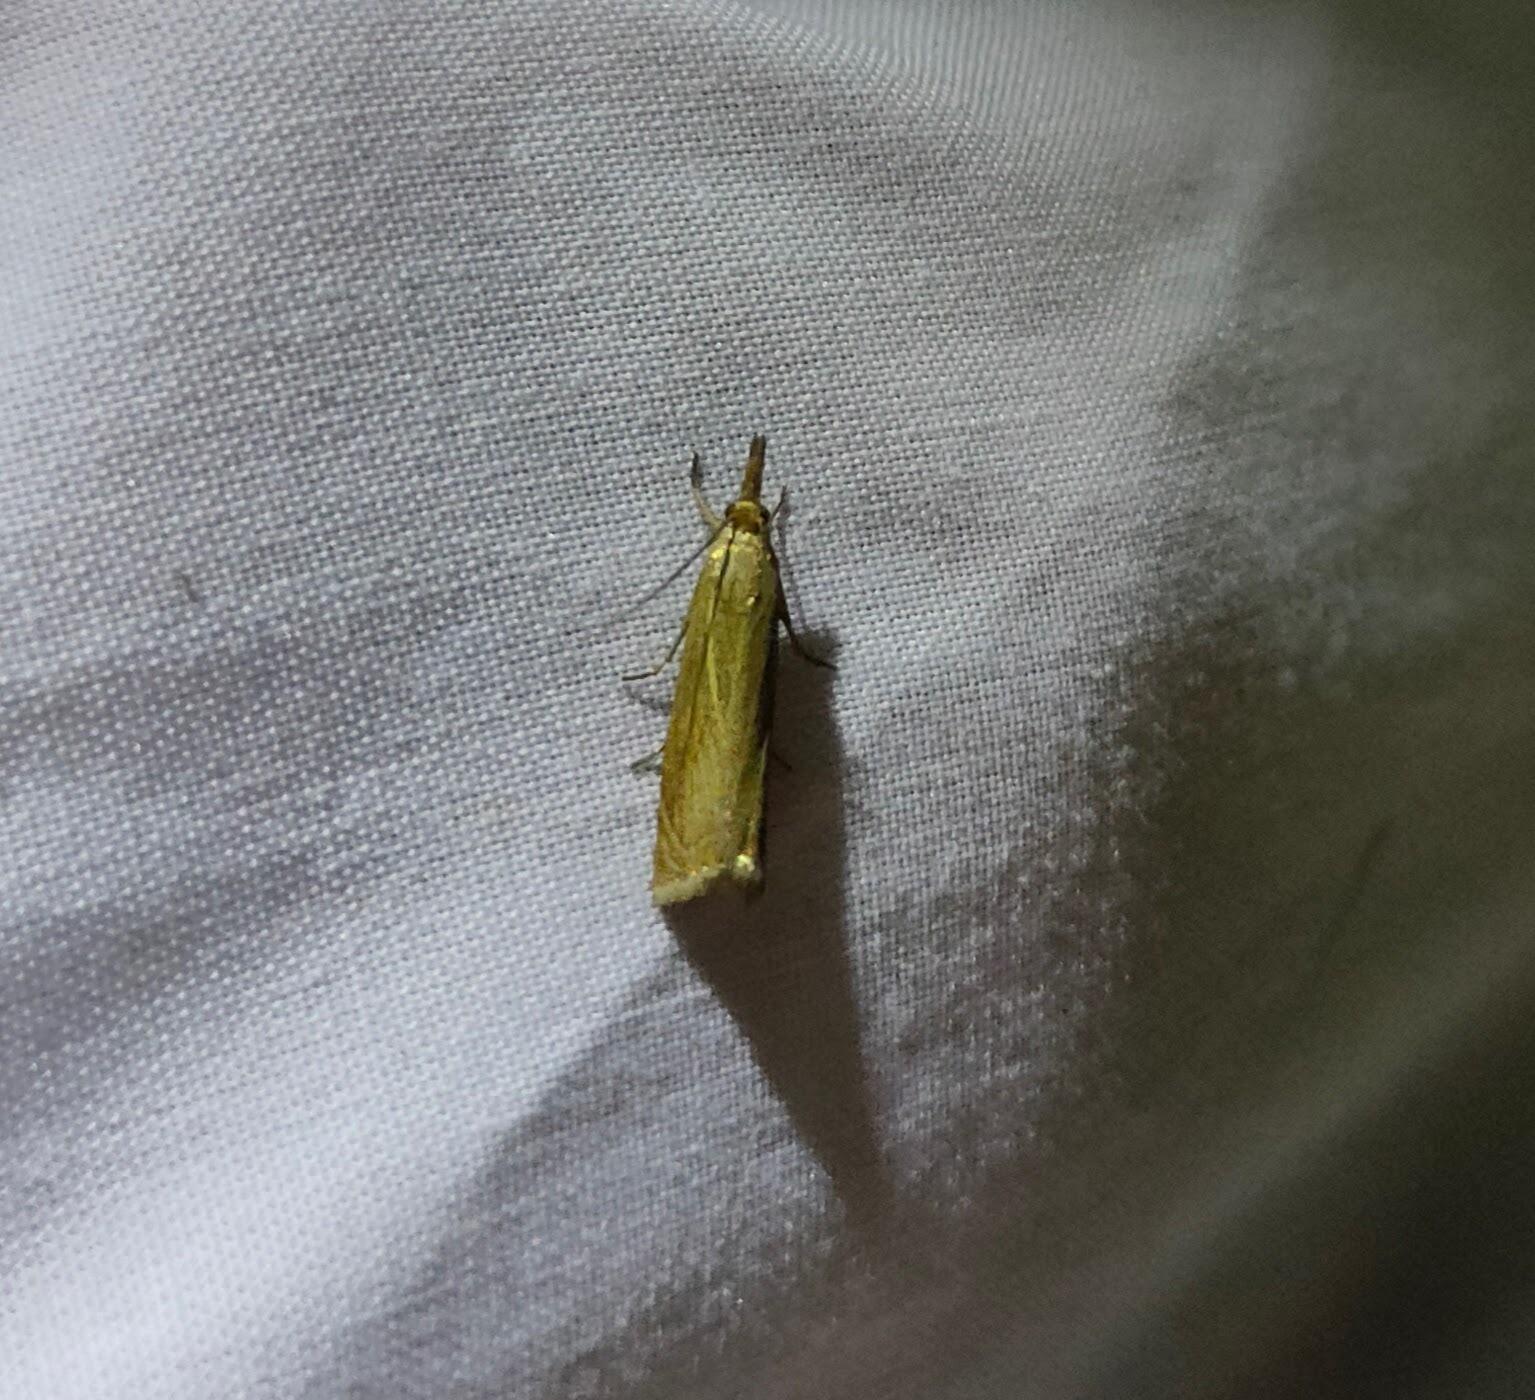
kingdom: Animalia
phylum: Arthropoda
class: Insecta
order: Lepidoptera
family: Crambidae
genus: Chrysoteuchia
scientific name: Chrysoteuchia culmella
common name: Garden grass-veneer
